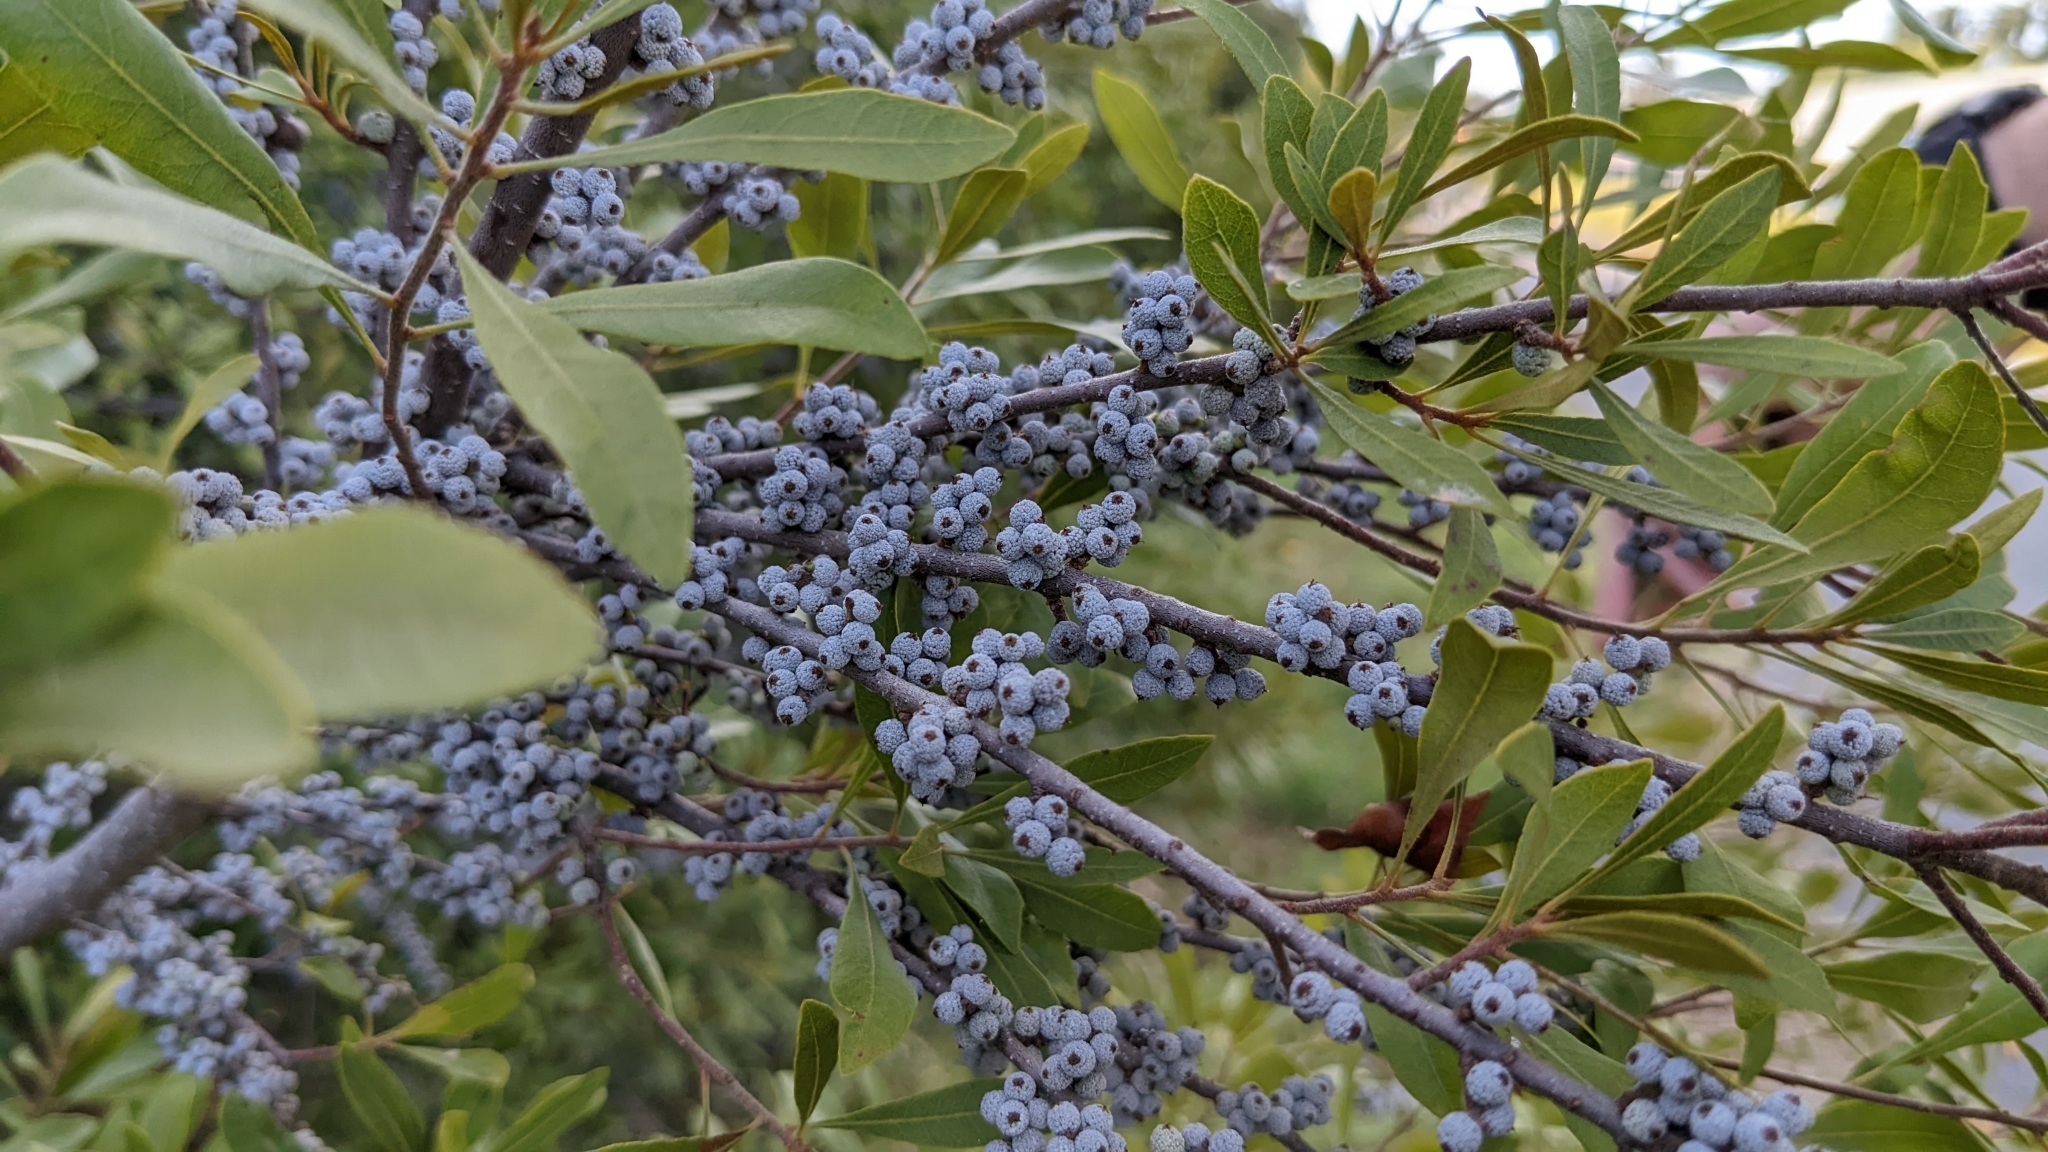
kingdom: Plantae
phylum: Tracheophyta
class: Magnoliopsida
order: Fagales
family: Myricaceae
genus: Morella
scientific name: Morella cerifera
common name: Wax myrtle
